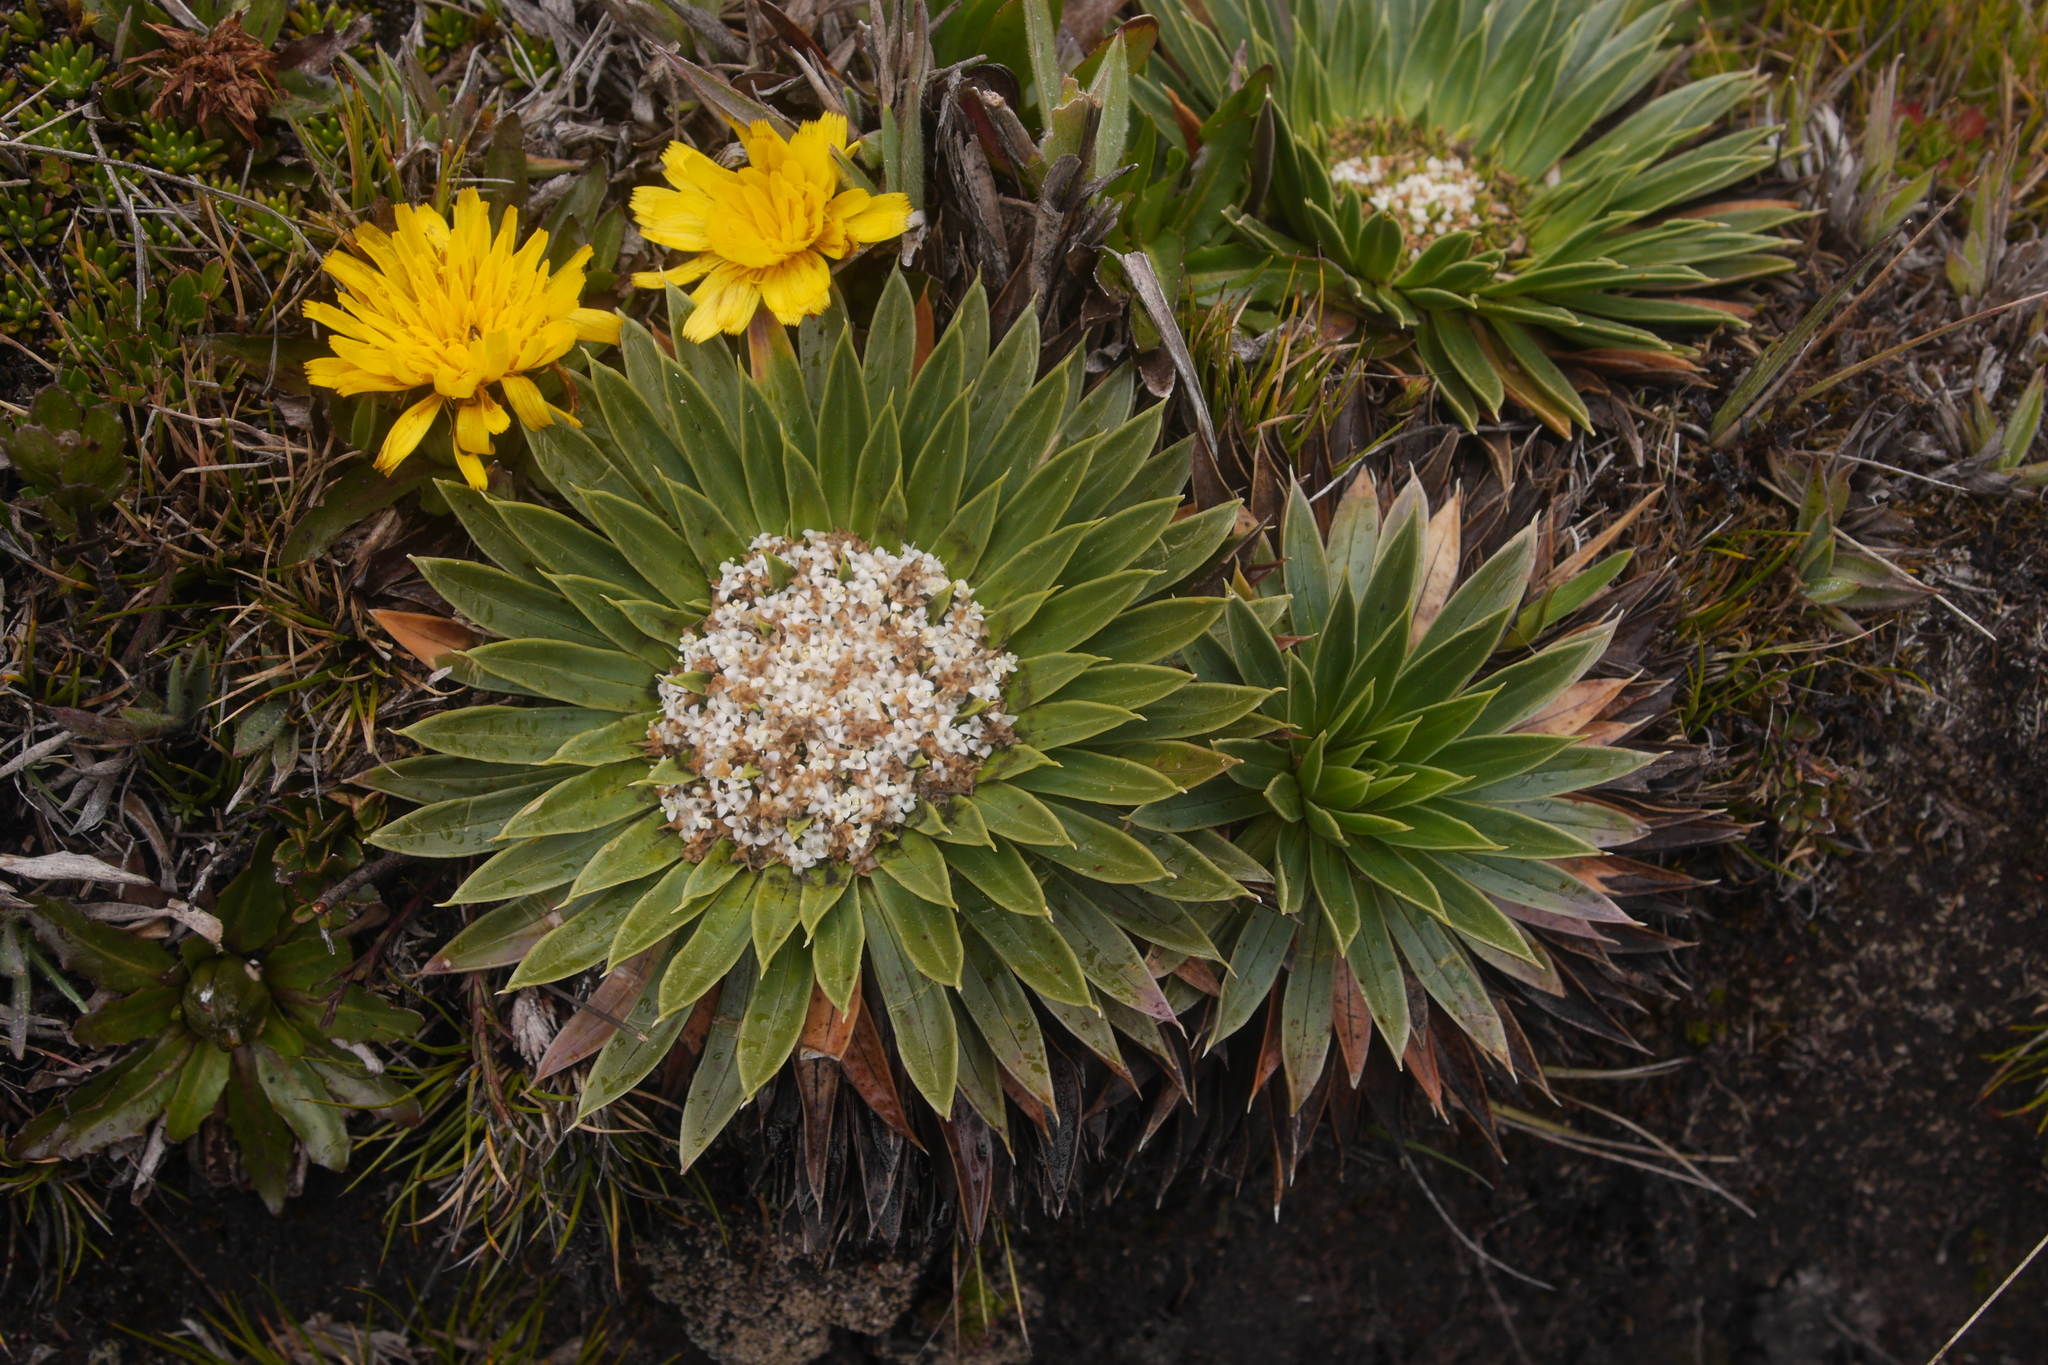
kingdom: Plantae
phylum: Tracheophyta
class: Magnoliopsida
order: Dipsacales
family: Caprifoliaceae
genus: Valeriana
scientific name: Valeriana rigida
